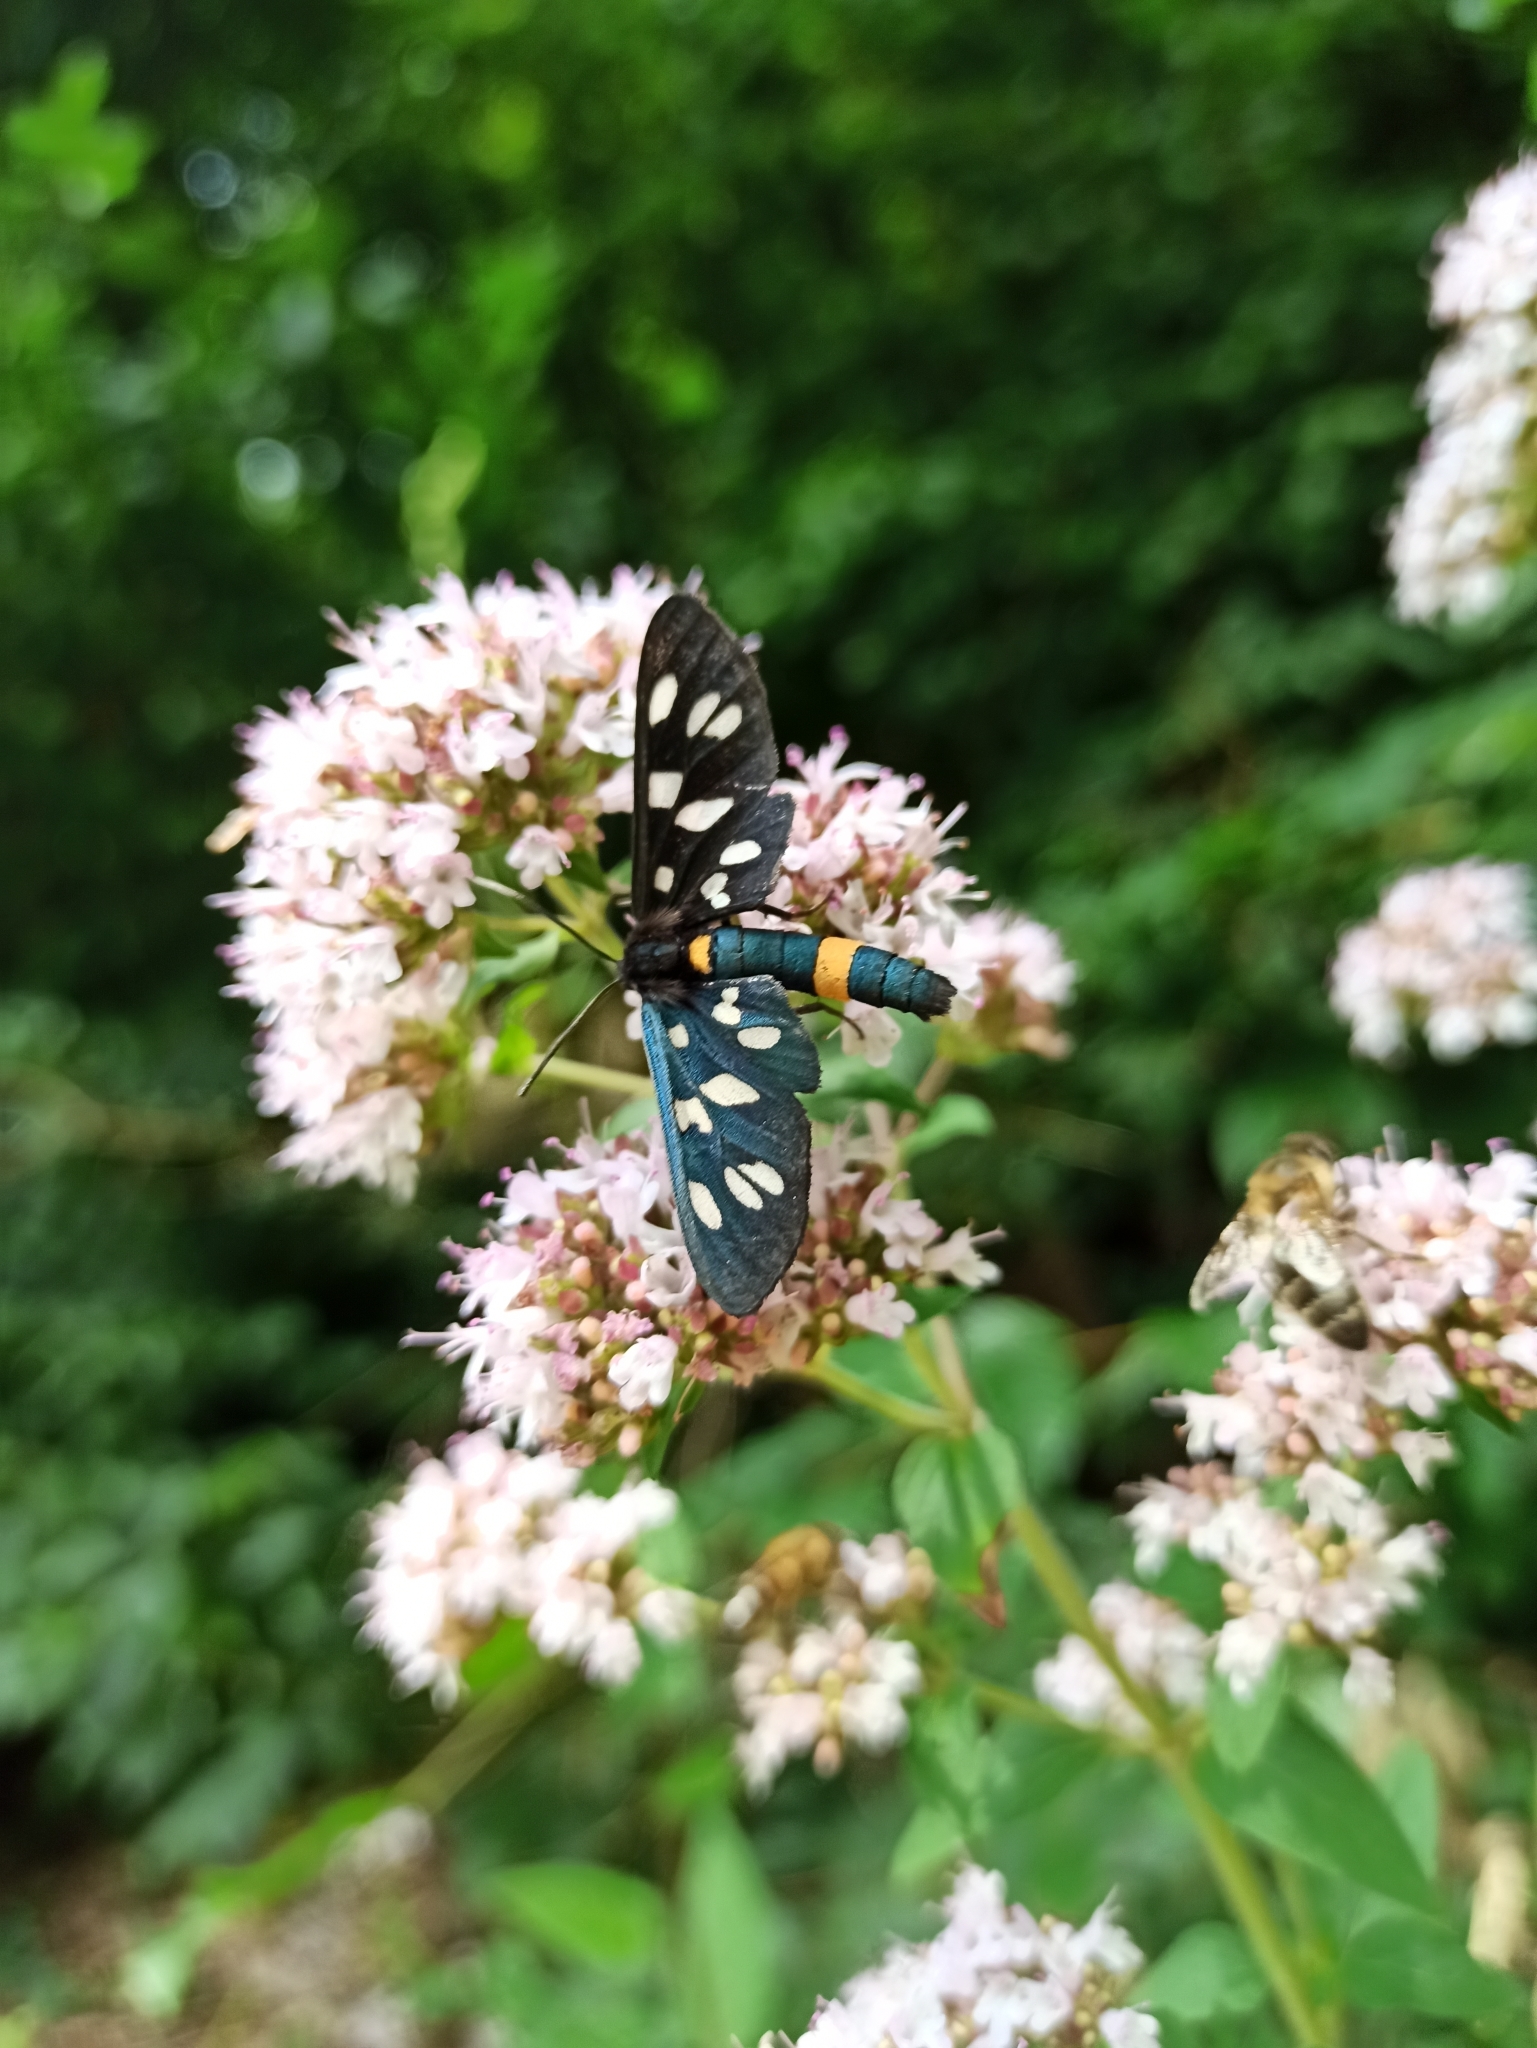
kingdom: Animalia
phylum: Arthropoda
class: Insecta
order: Lepidoptera
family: Erebidae
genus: Amata
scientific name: Amata phegea
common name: Nine-spotted
